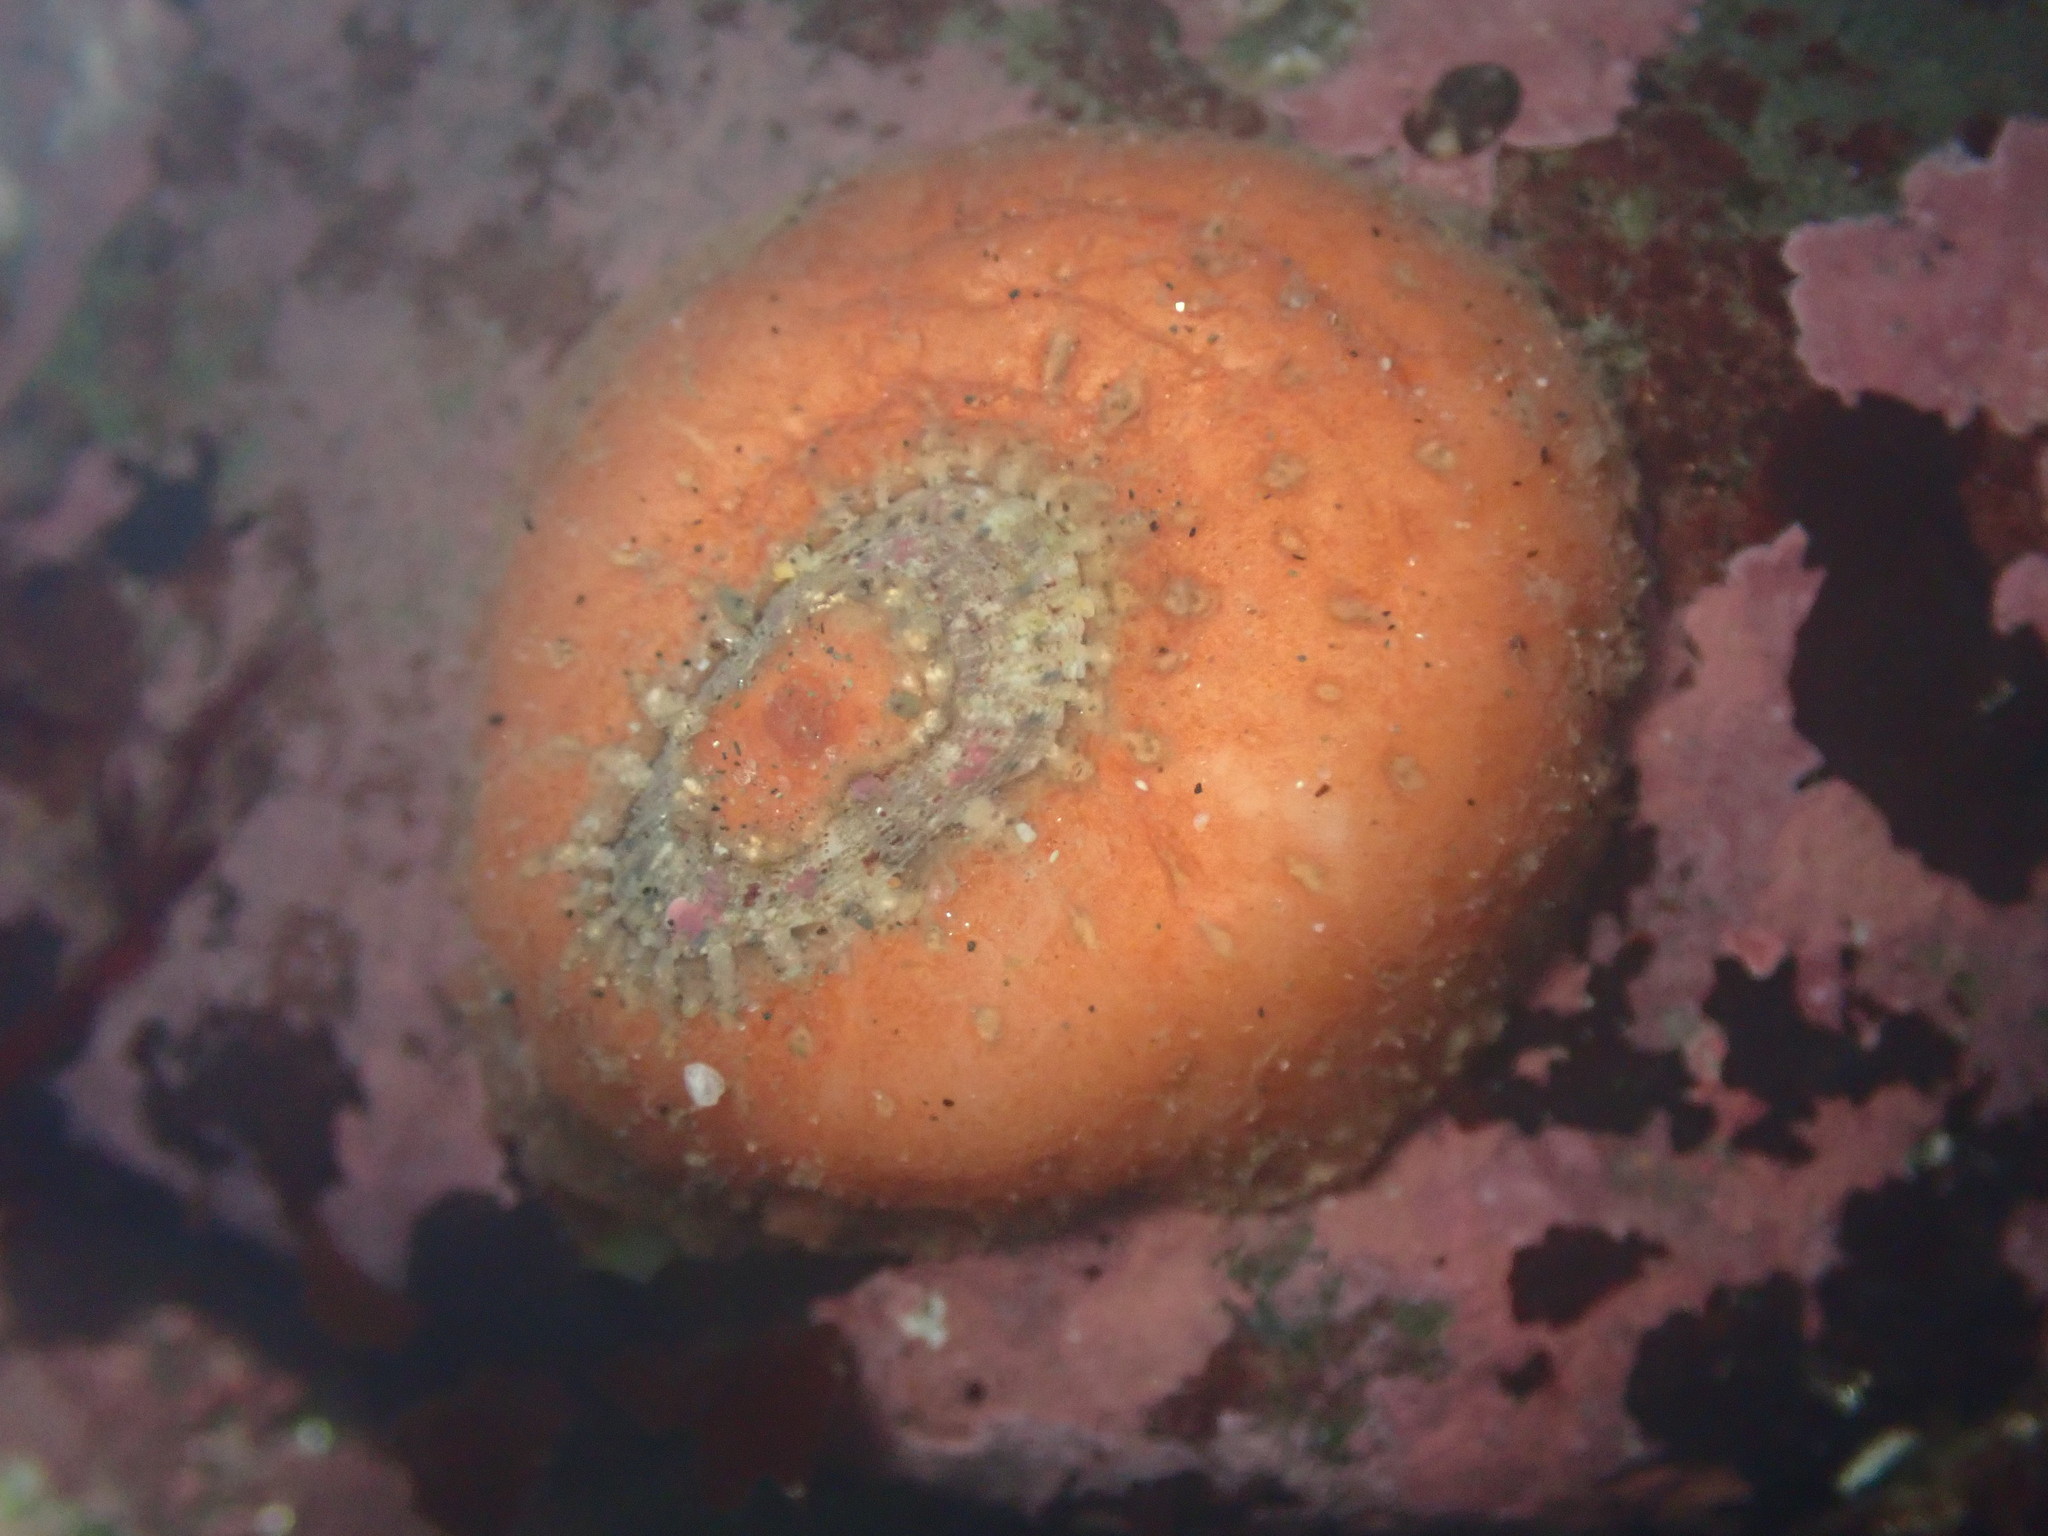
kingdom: Animalia
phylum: Mollusca
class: Gastropoda
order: Lepetellida
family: Fissurellidae
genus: Fissurellidea
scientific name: Fissurellidea bimaculata
